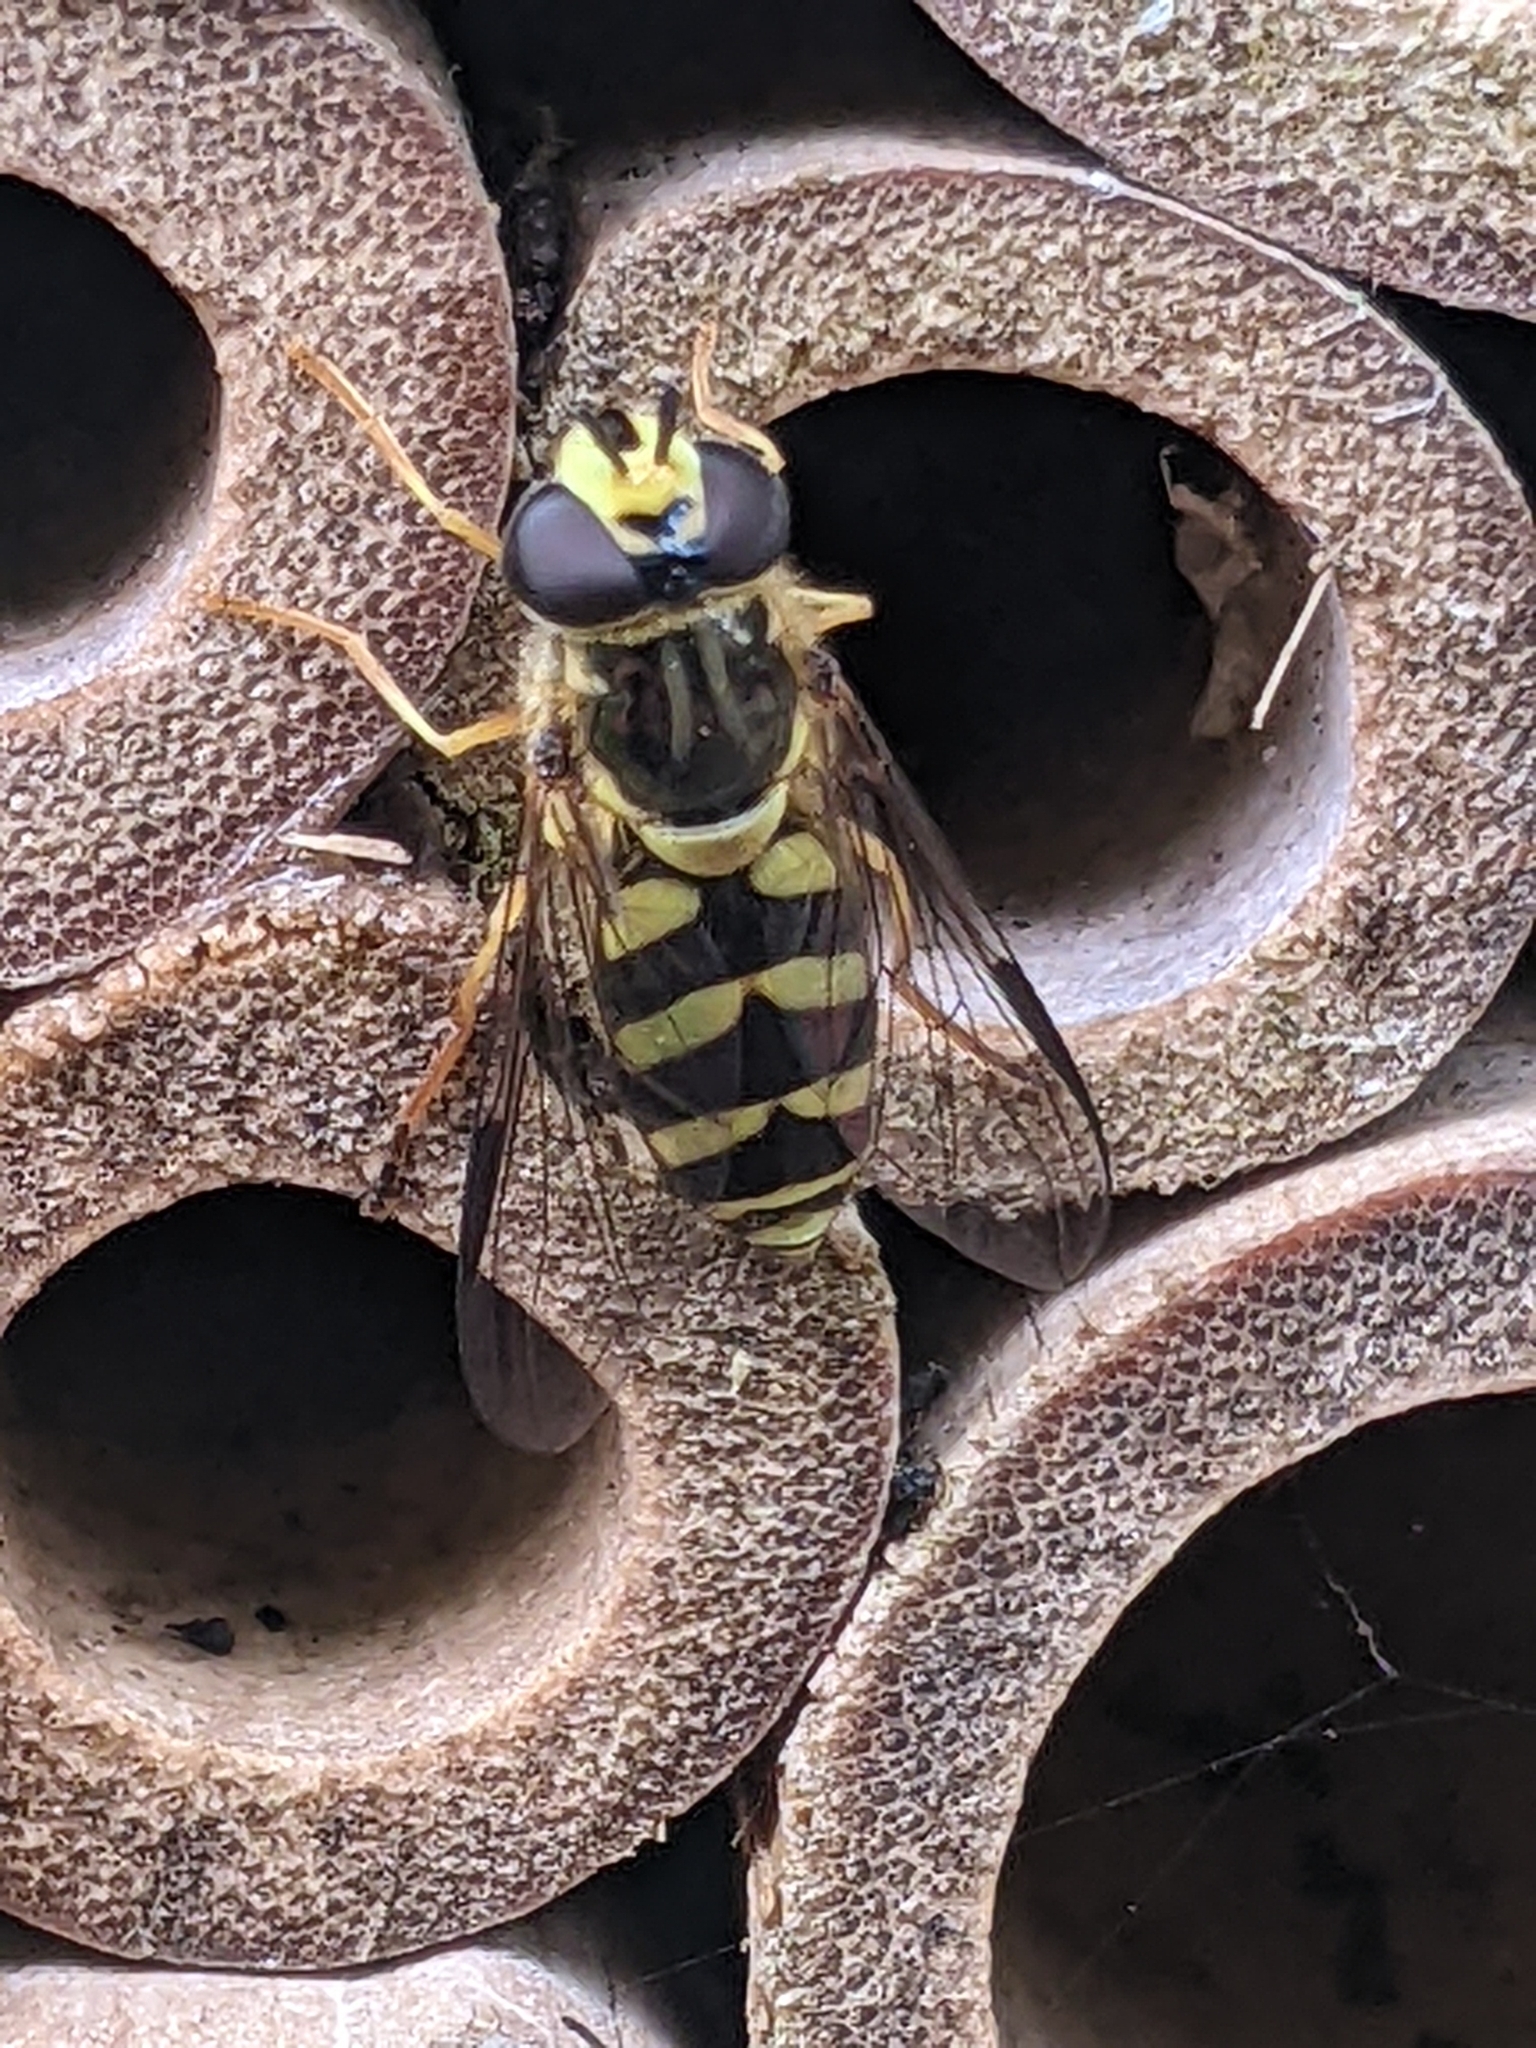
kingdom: Animalia
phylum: Arthropoda
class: Insecta
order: Diptera
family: Syrphidae
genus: Dasysyrphus
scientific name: Dasysyrphus albostriatus
